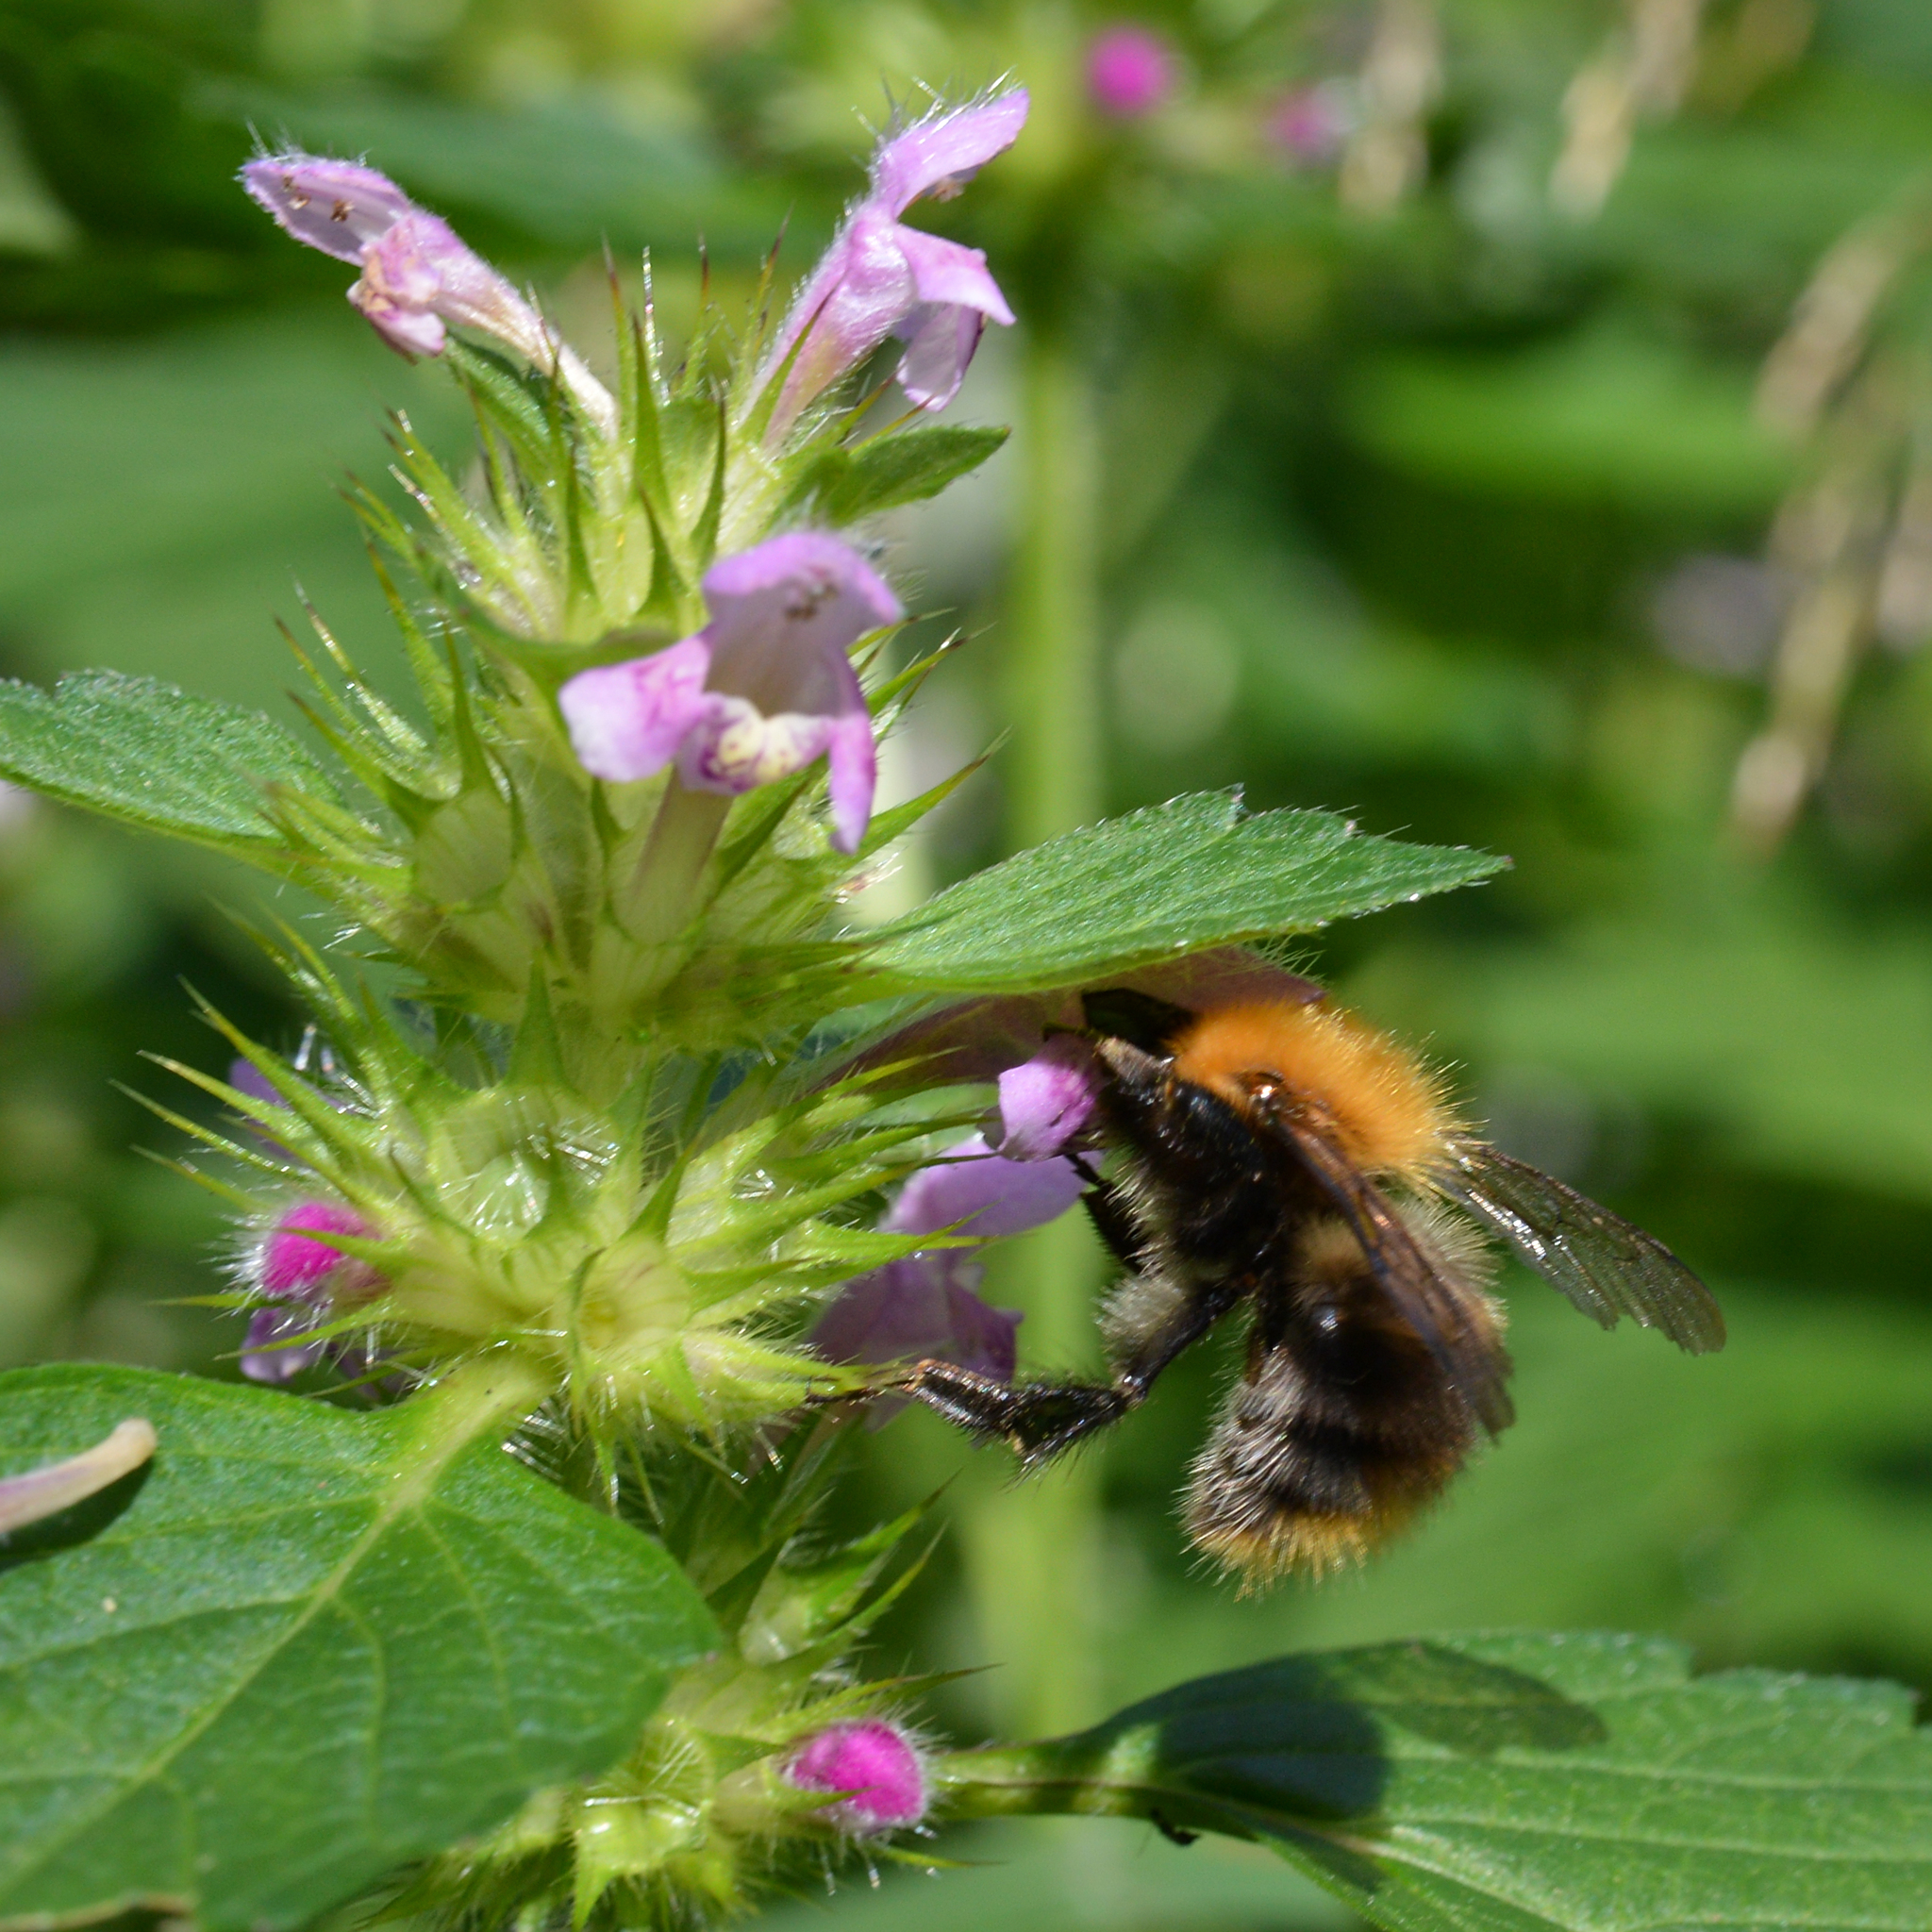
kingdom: Animalia
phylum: Arthropoda
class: Insecta
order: Hymenoptera
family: Apidae
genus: Bombus
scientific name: Bombus pascuorum
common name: Common carder bee
